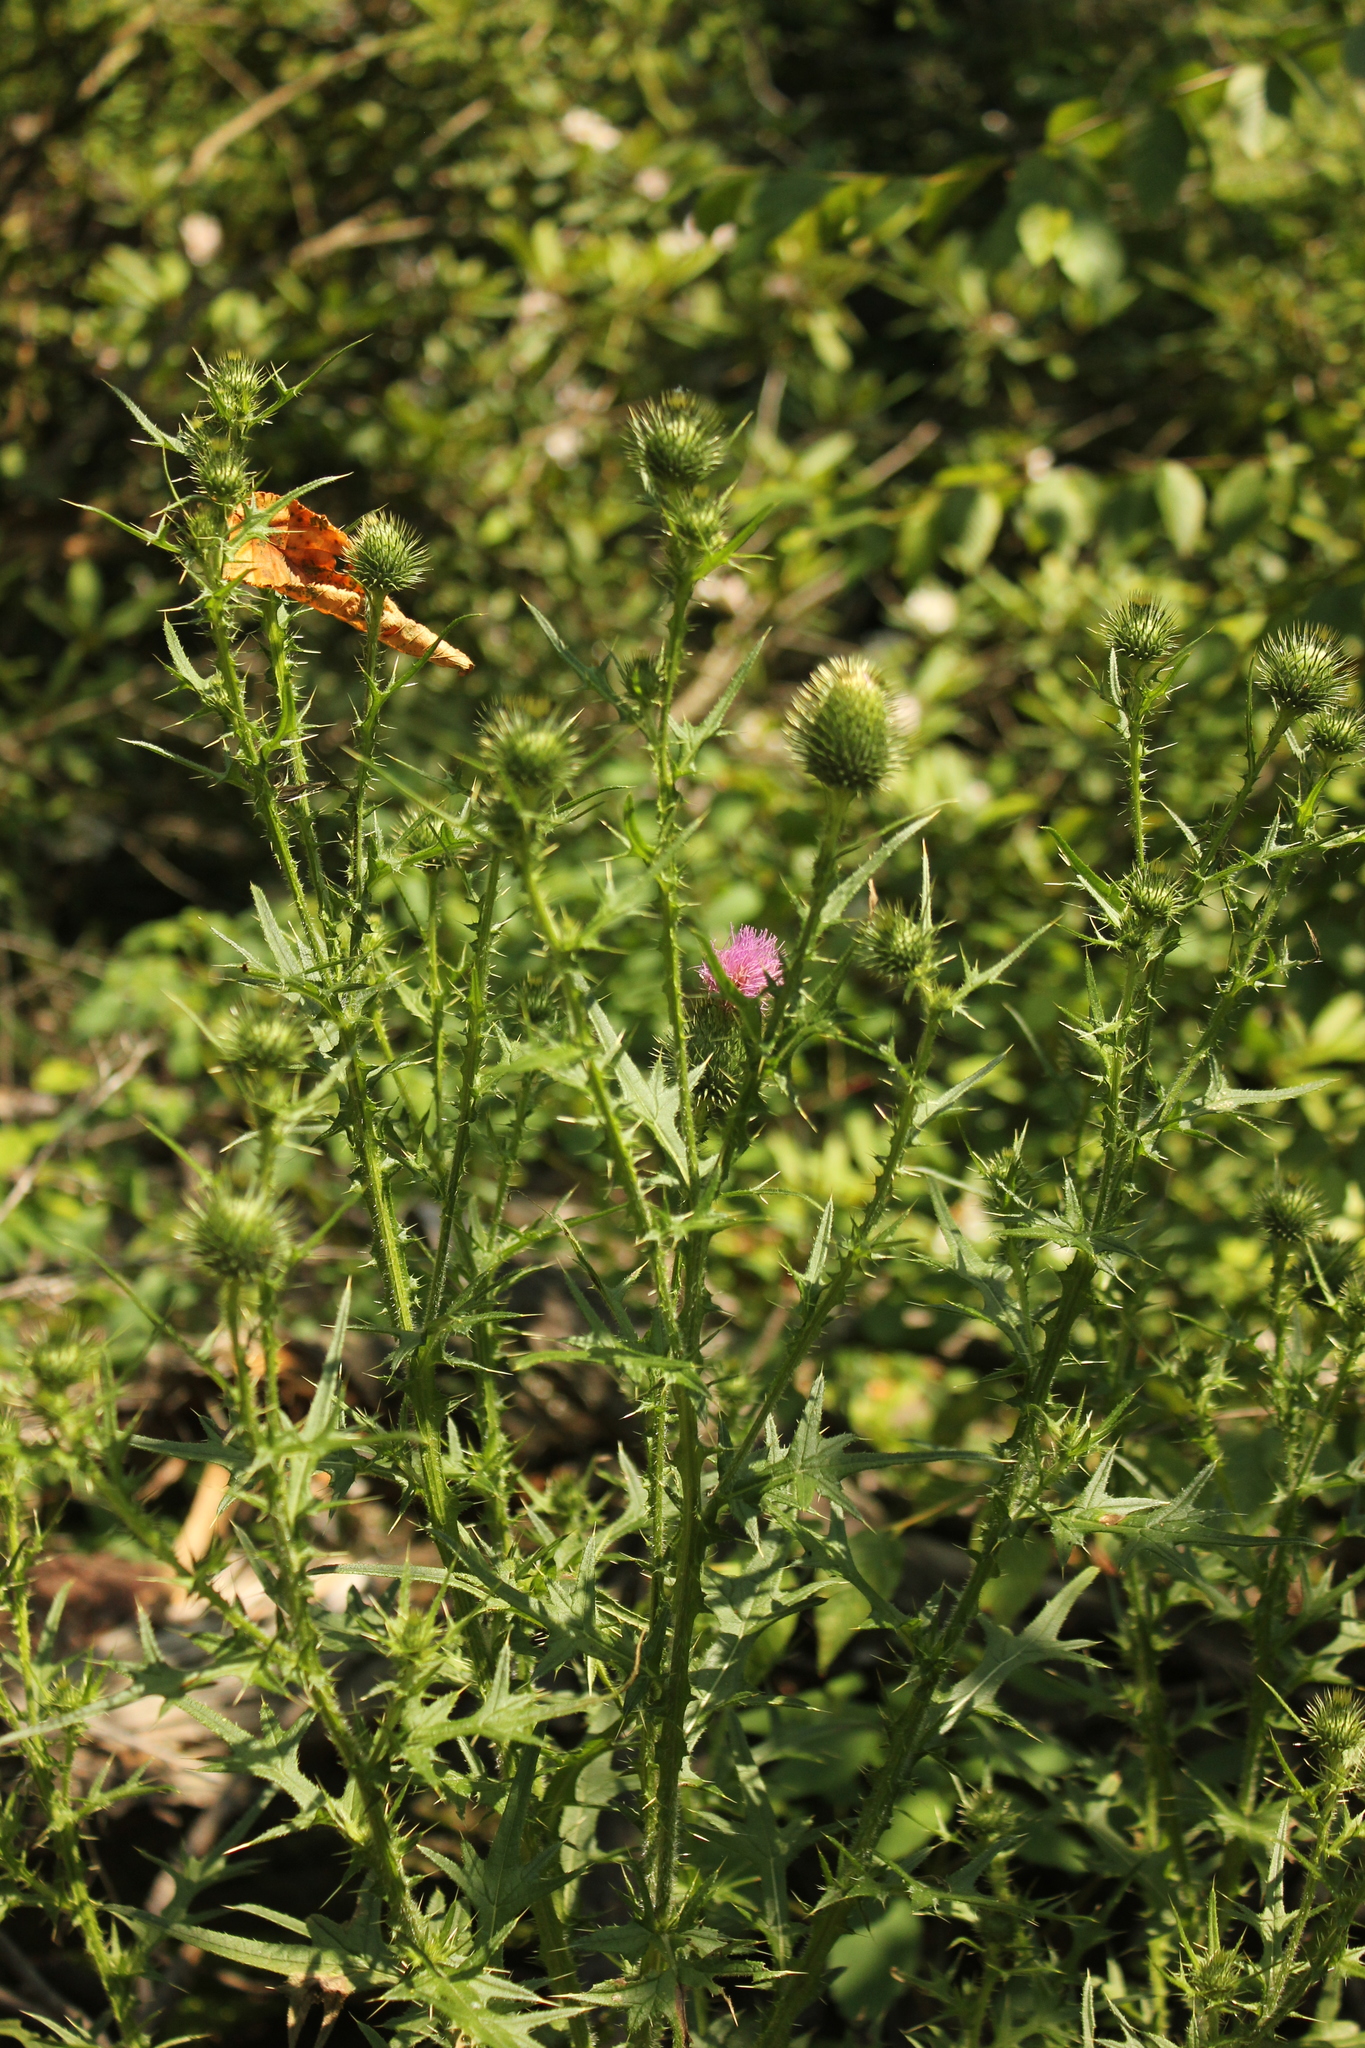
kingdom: Plantae
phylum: Tracheophyta
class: Magnoliopsida
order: Asterales
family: Asteraceae
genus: Cirsium
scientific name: Cirsium vulgare
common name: Bull thistle
